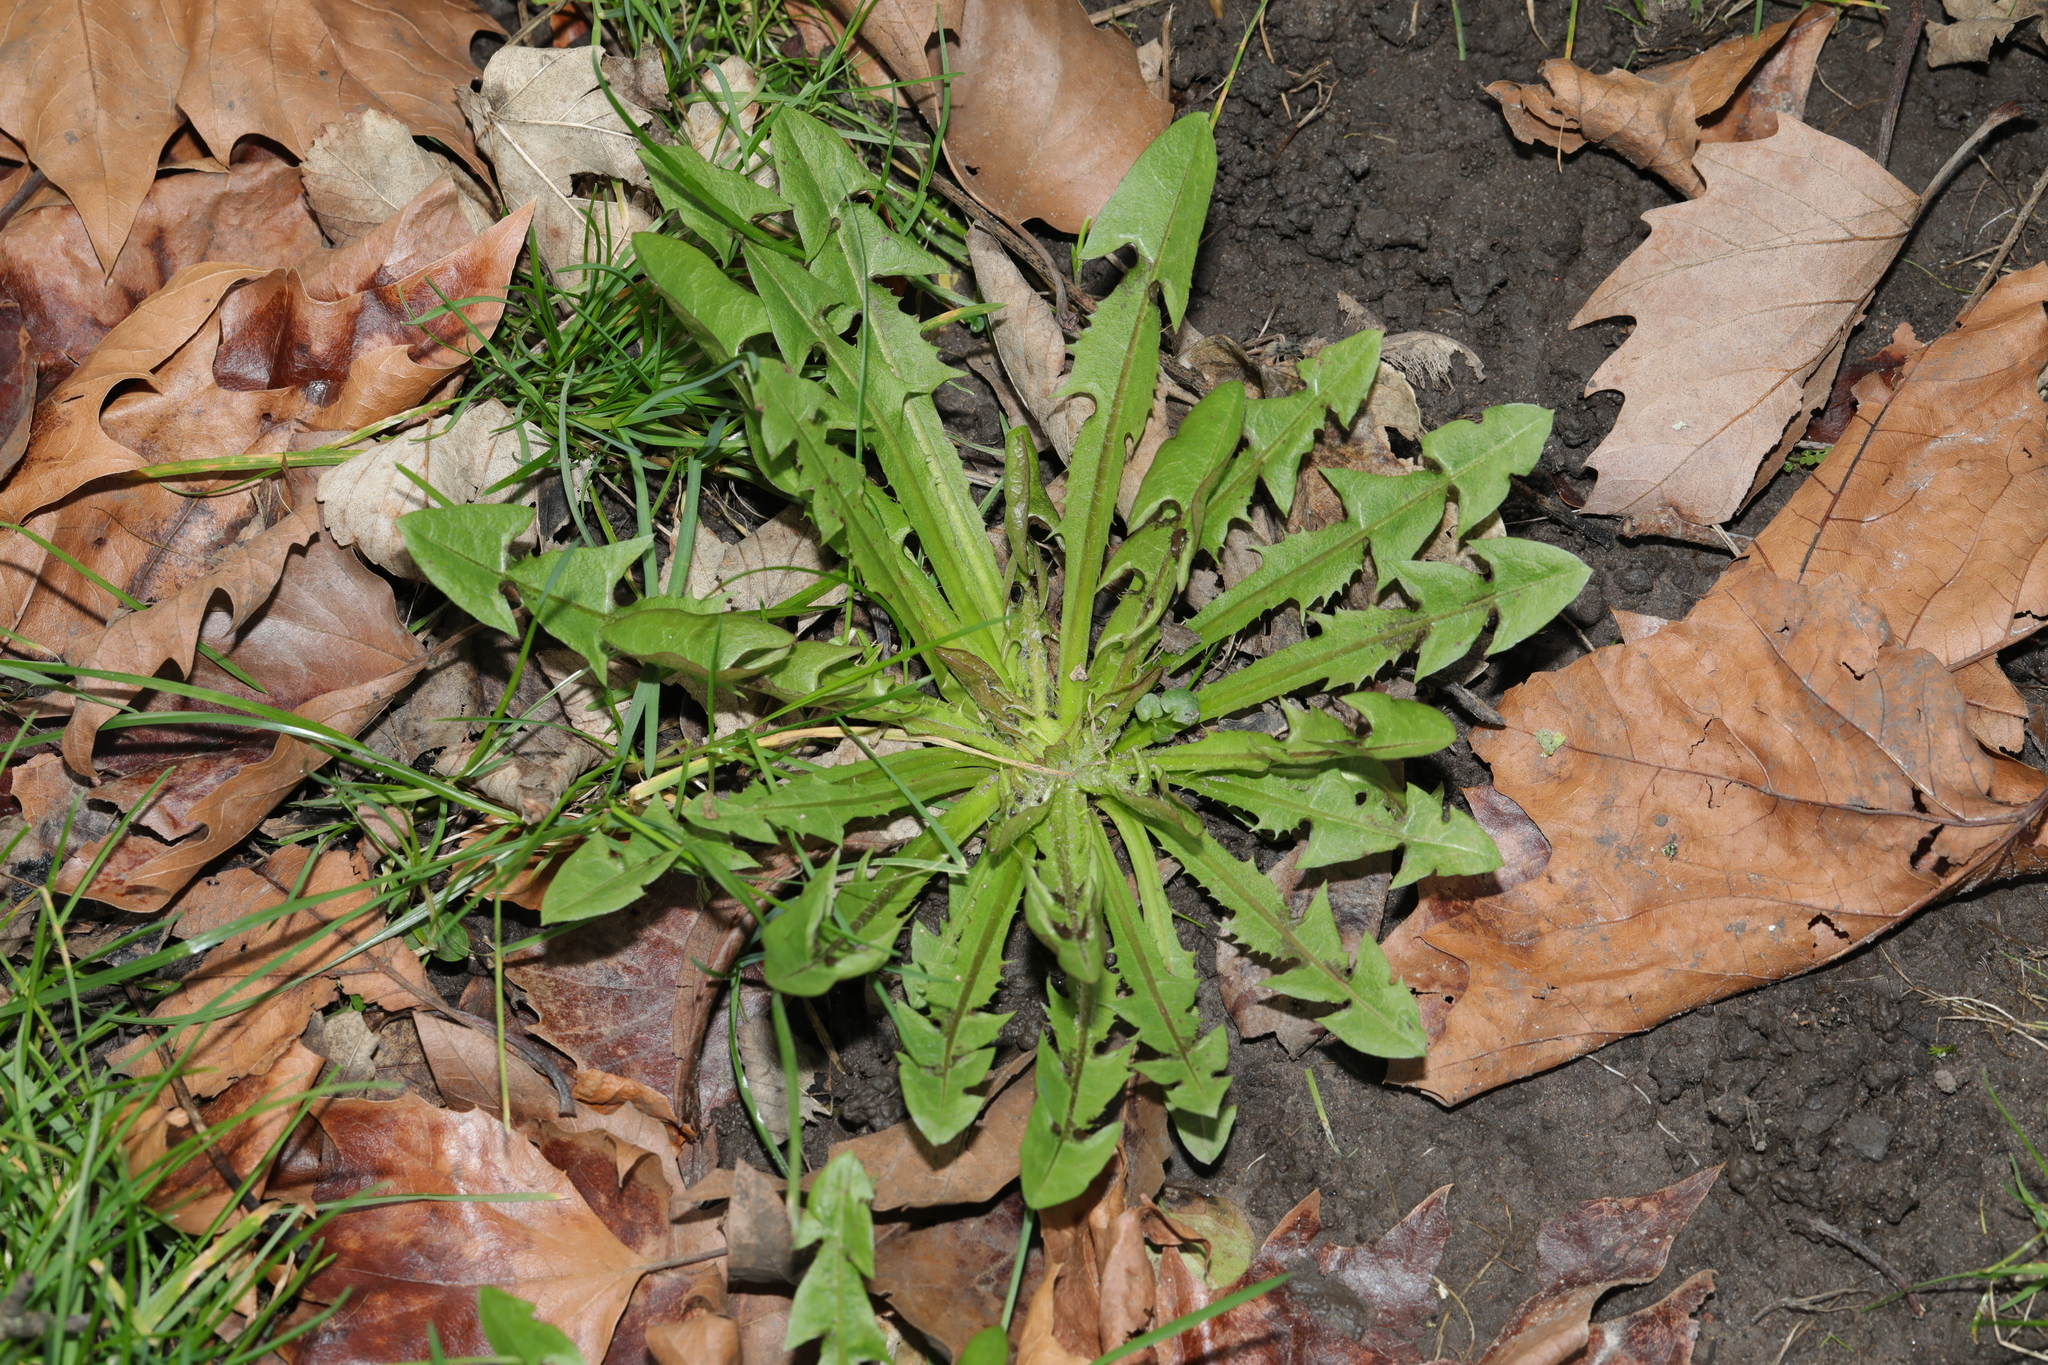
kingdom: Plantae
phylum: Tracheophyta
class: Magnoliopsida
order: Asterales
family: Asteraceae
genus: Taraxacum
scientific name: Taraxacum officinale
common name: Common dandelion
